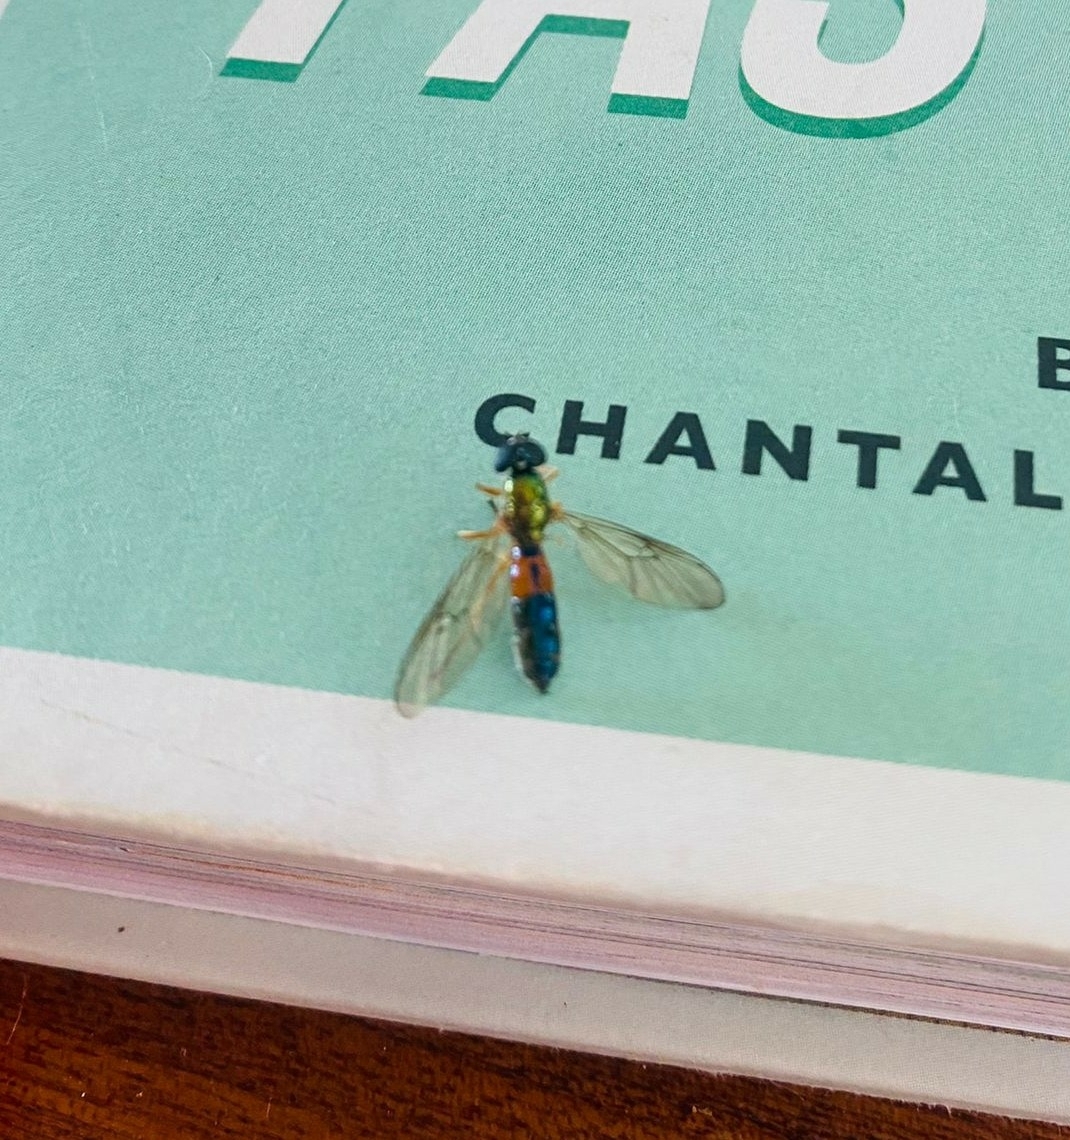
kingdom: Animalia
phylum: Arthropoda
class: Insecta
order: Diptera
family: Stratiomyidae
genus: Sargus
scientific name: Sargus bipunctatus
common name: Twin-spot centurion
